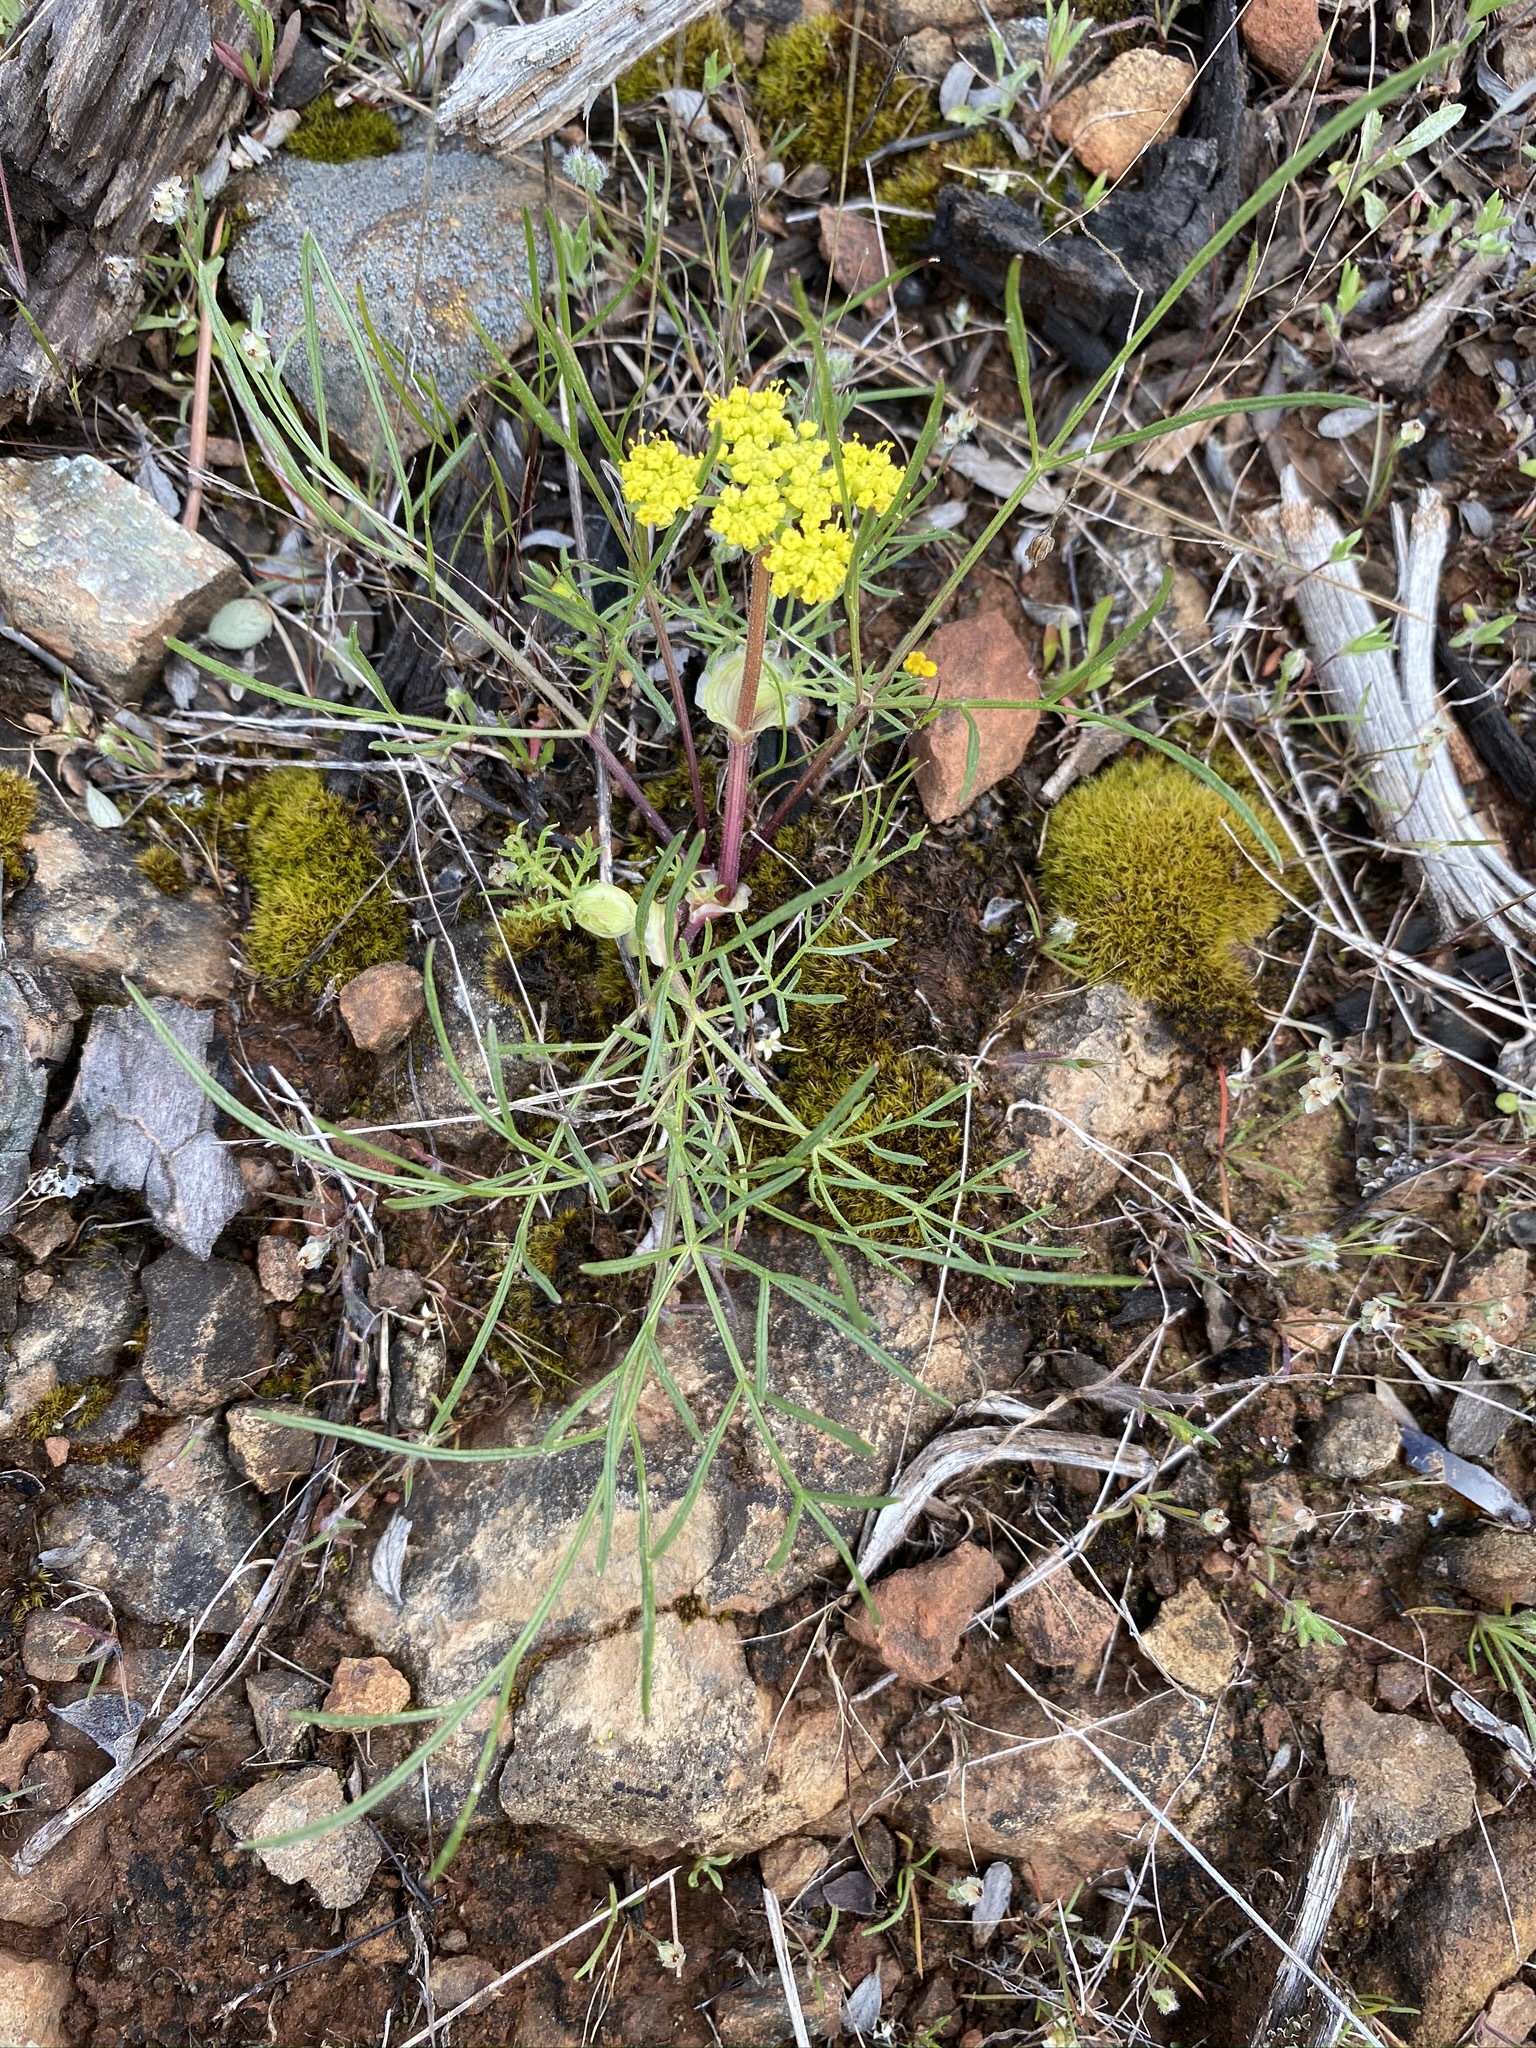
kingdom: Plantae
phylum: Tracheophyta
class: Magnoliopsida
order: Apiales
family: Apiaceae
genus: Lomatium
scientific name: Lomatium utriculatum
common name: Fine-leaf desert-parsley
